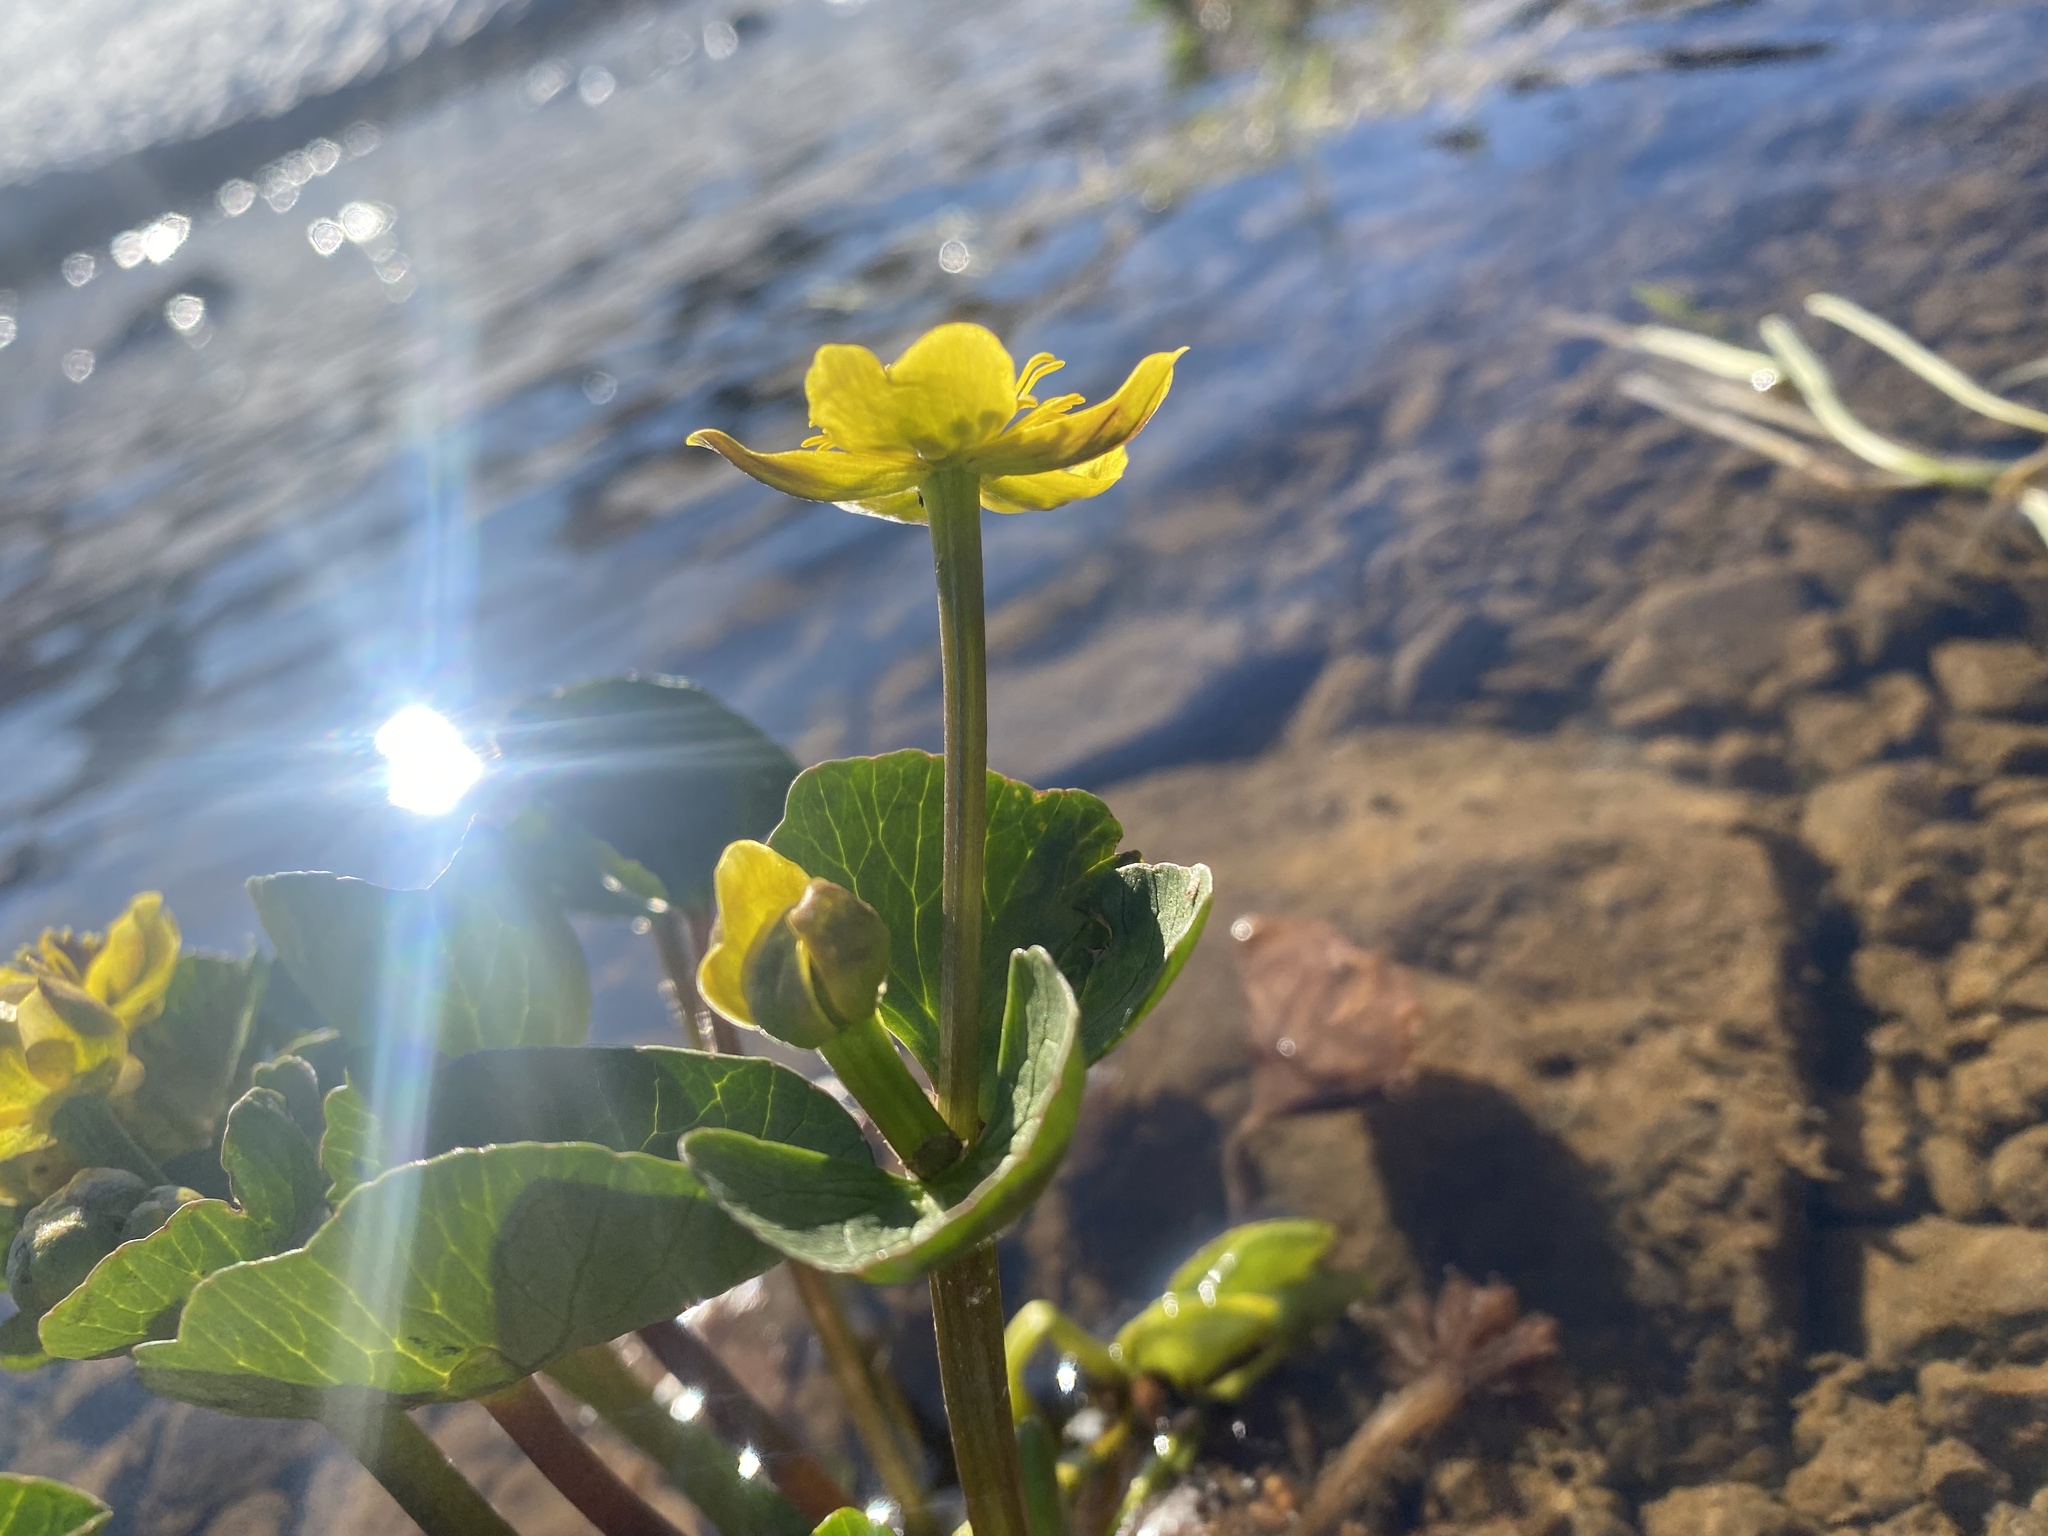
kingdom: Plantae
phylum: Tracheophyta
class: Magnoliopsida
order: Ranunculales
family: Ranunculaceae
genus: Caltha
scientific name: Caltha palustris
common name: Marsh marigold
